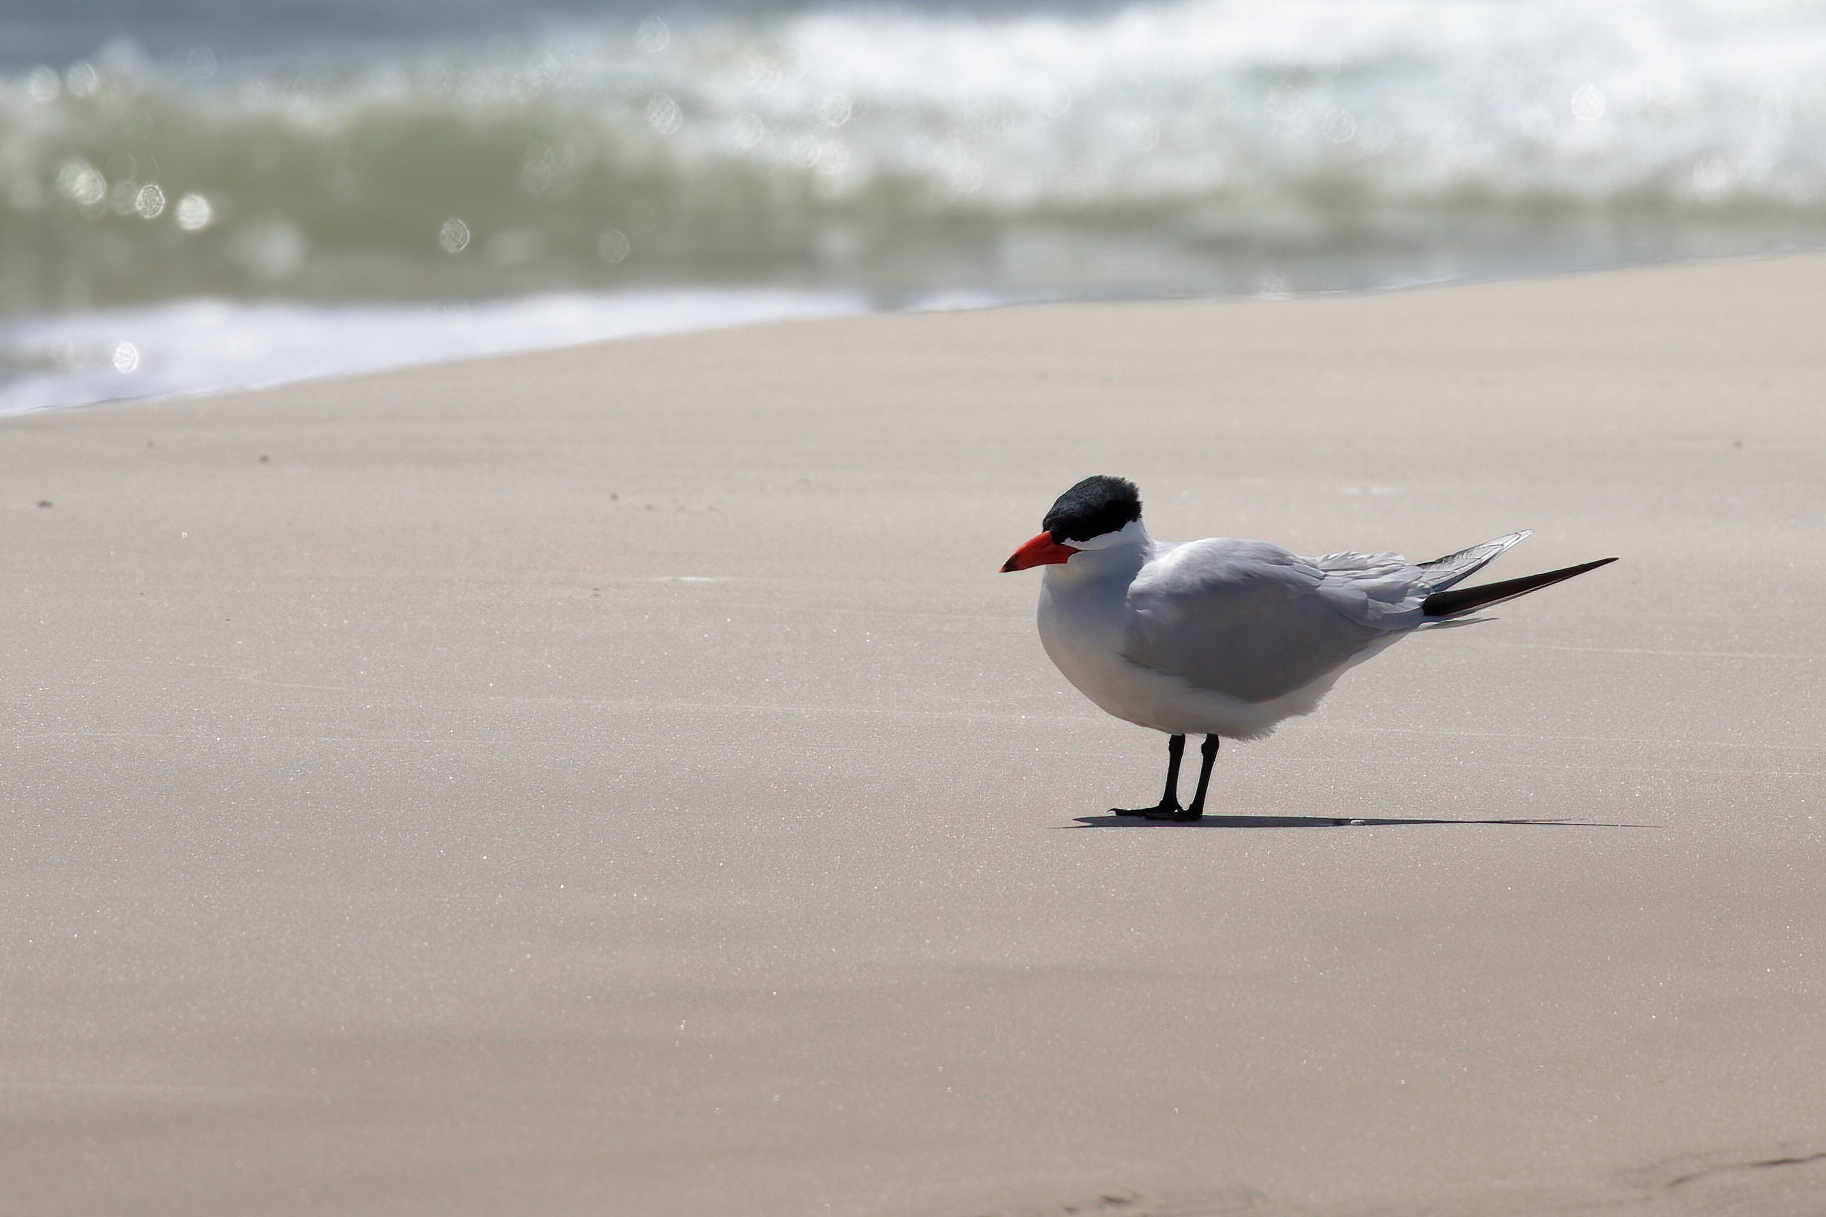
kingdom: Animalia
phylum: Chordata
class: Aves
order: Charadriiformes
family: Laridae
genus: Hydroprogne
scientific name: Hydroprogne caspia
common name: Caspian tern
